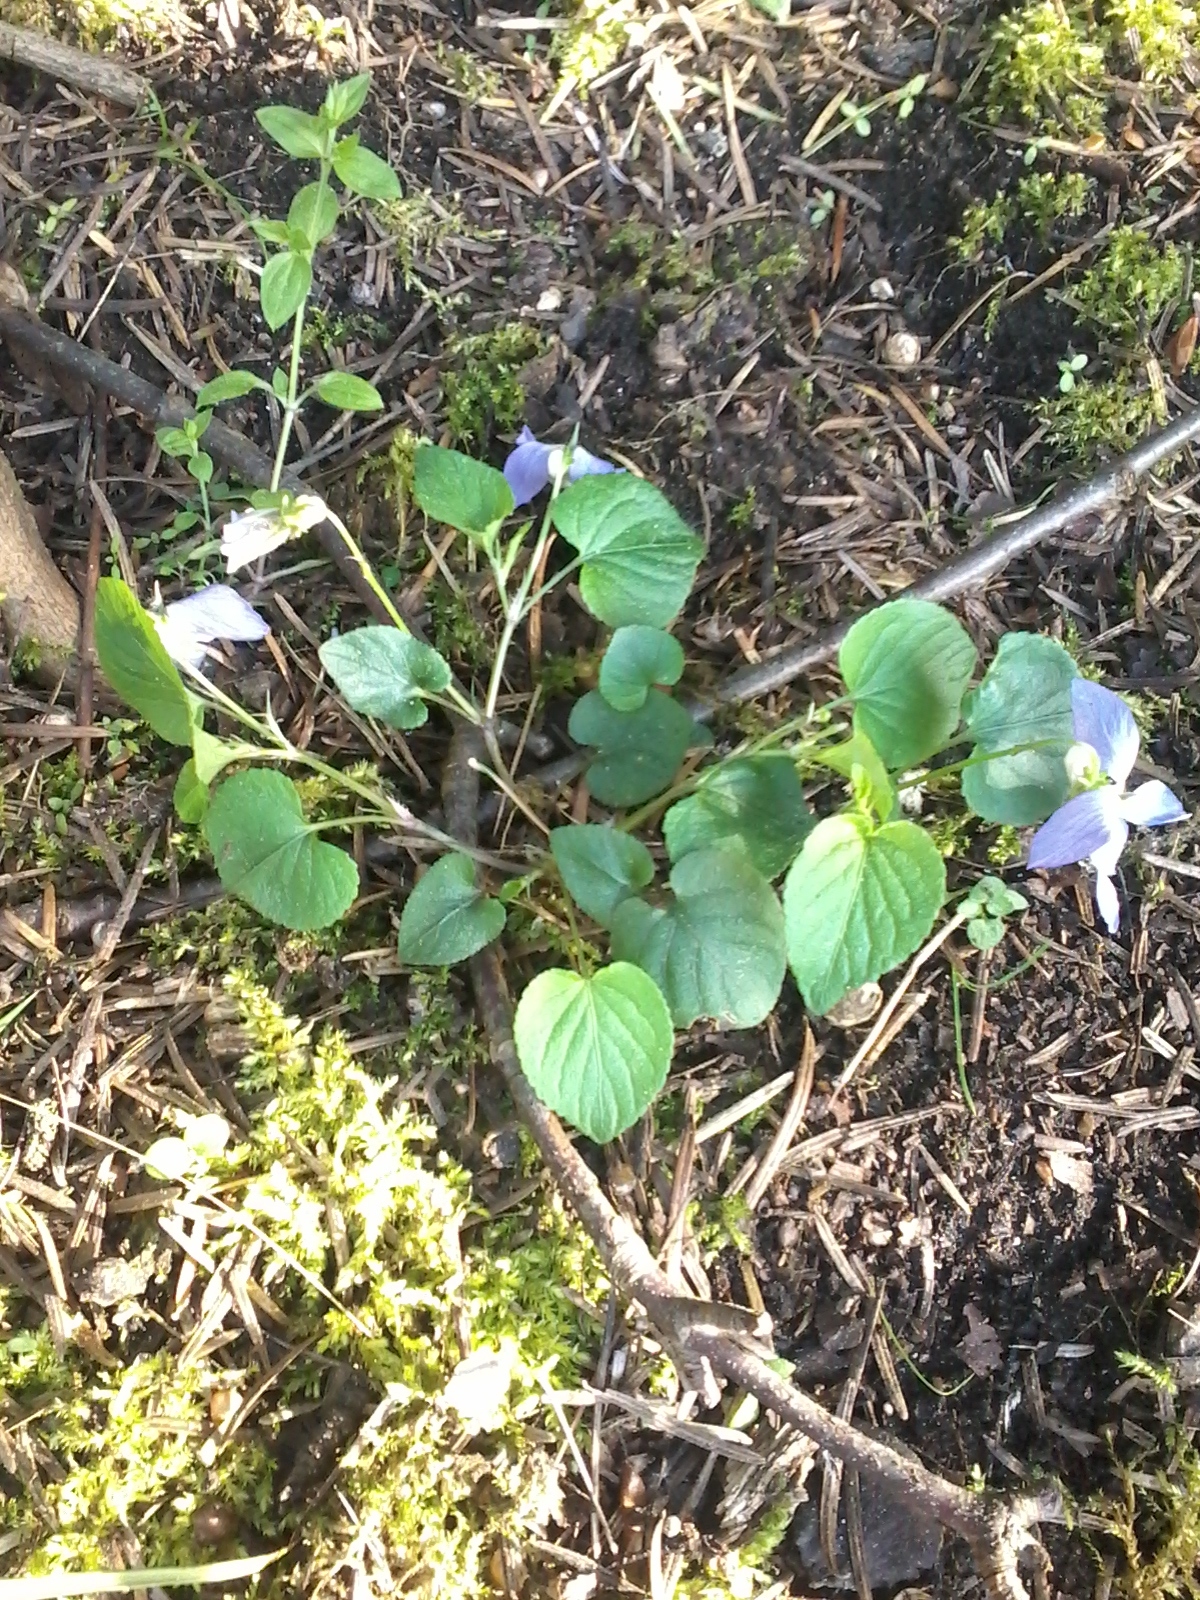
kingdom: Plantae
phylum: Tracheophyta
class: Magnoliopsida
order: Malpighiales
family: Violaceae
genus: Viola
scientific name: Viola riviniana
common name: Common dog-violet
